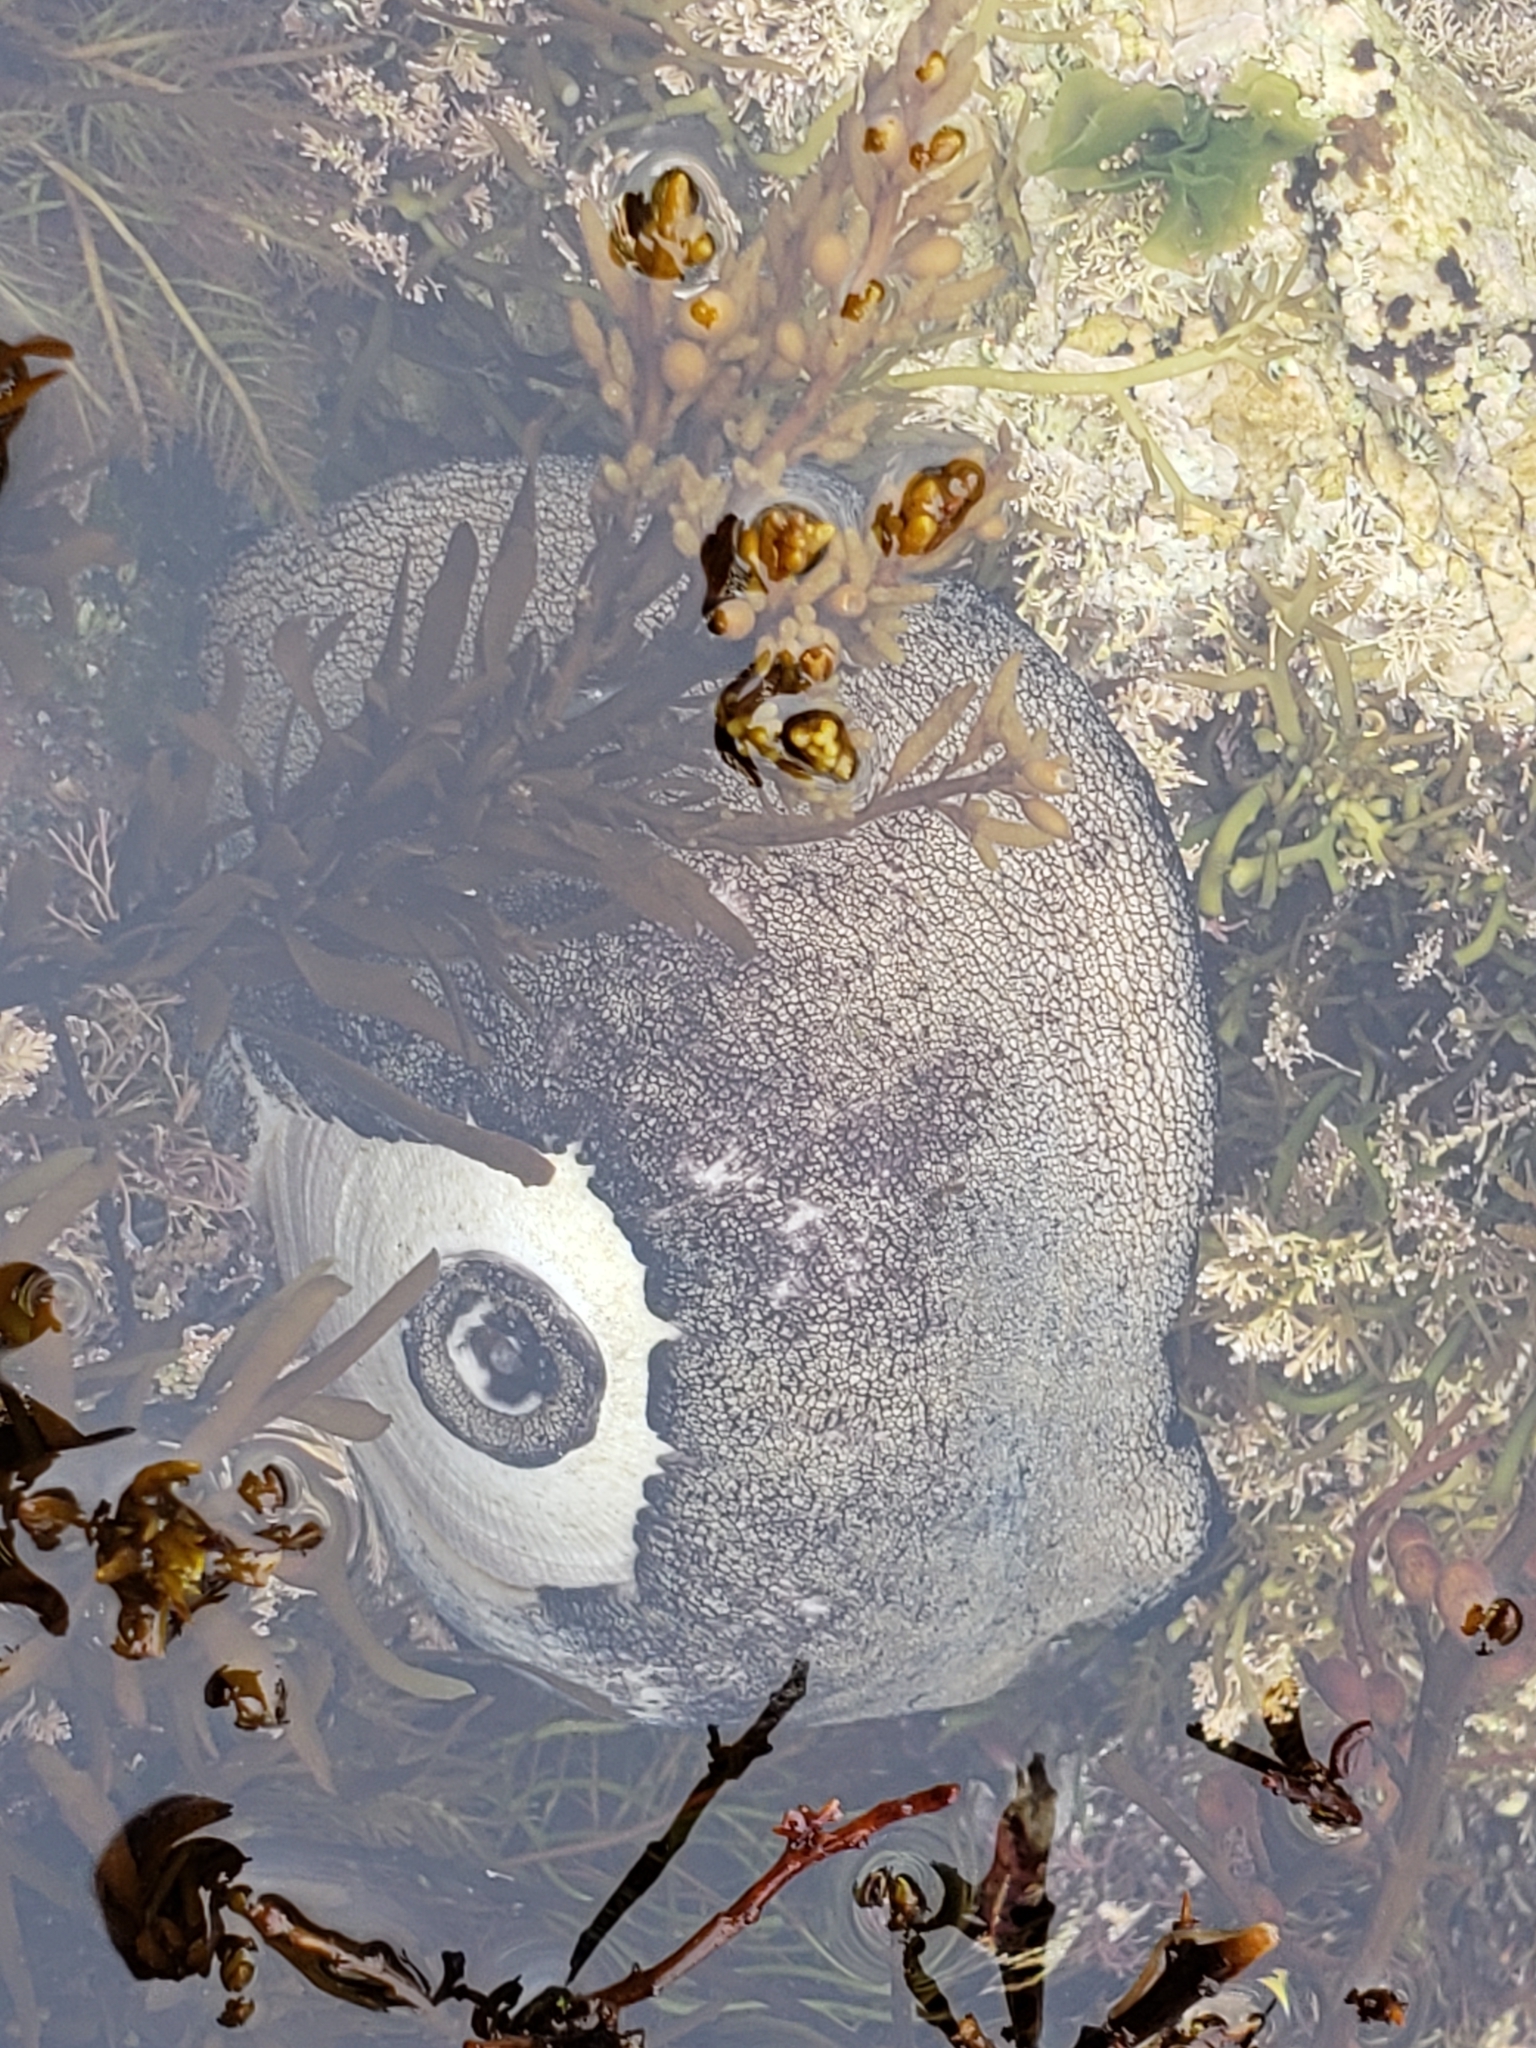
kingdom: Animalia
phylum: Mollusca
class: Gastropoda
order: Lepetellida
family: Fissurellidae
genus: Megathura
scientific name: Megathura crenulata
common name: Giant keyhole limpet
